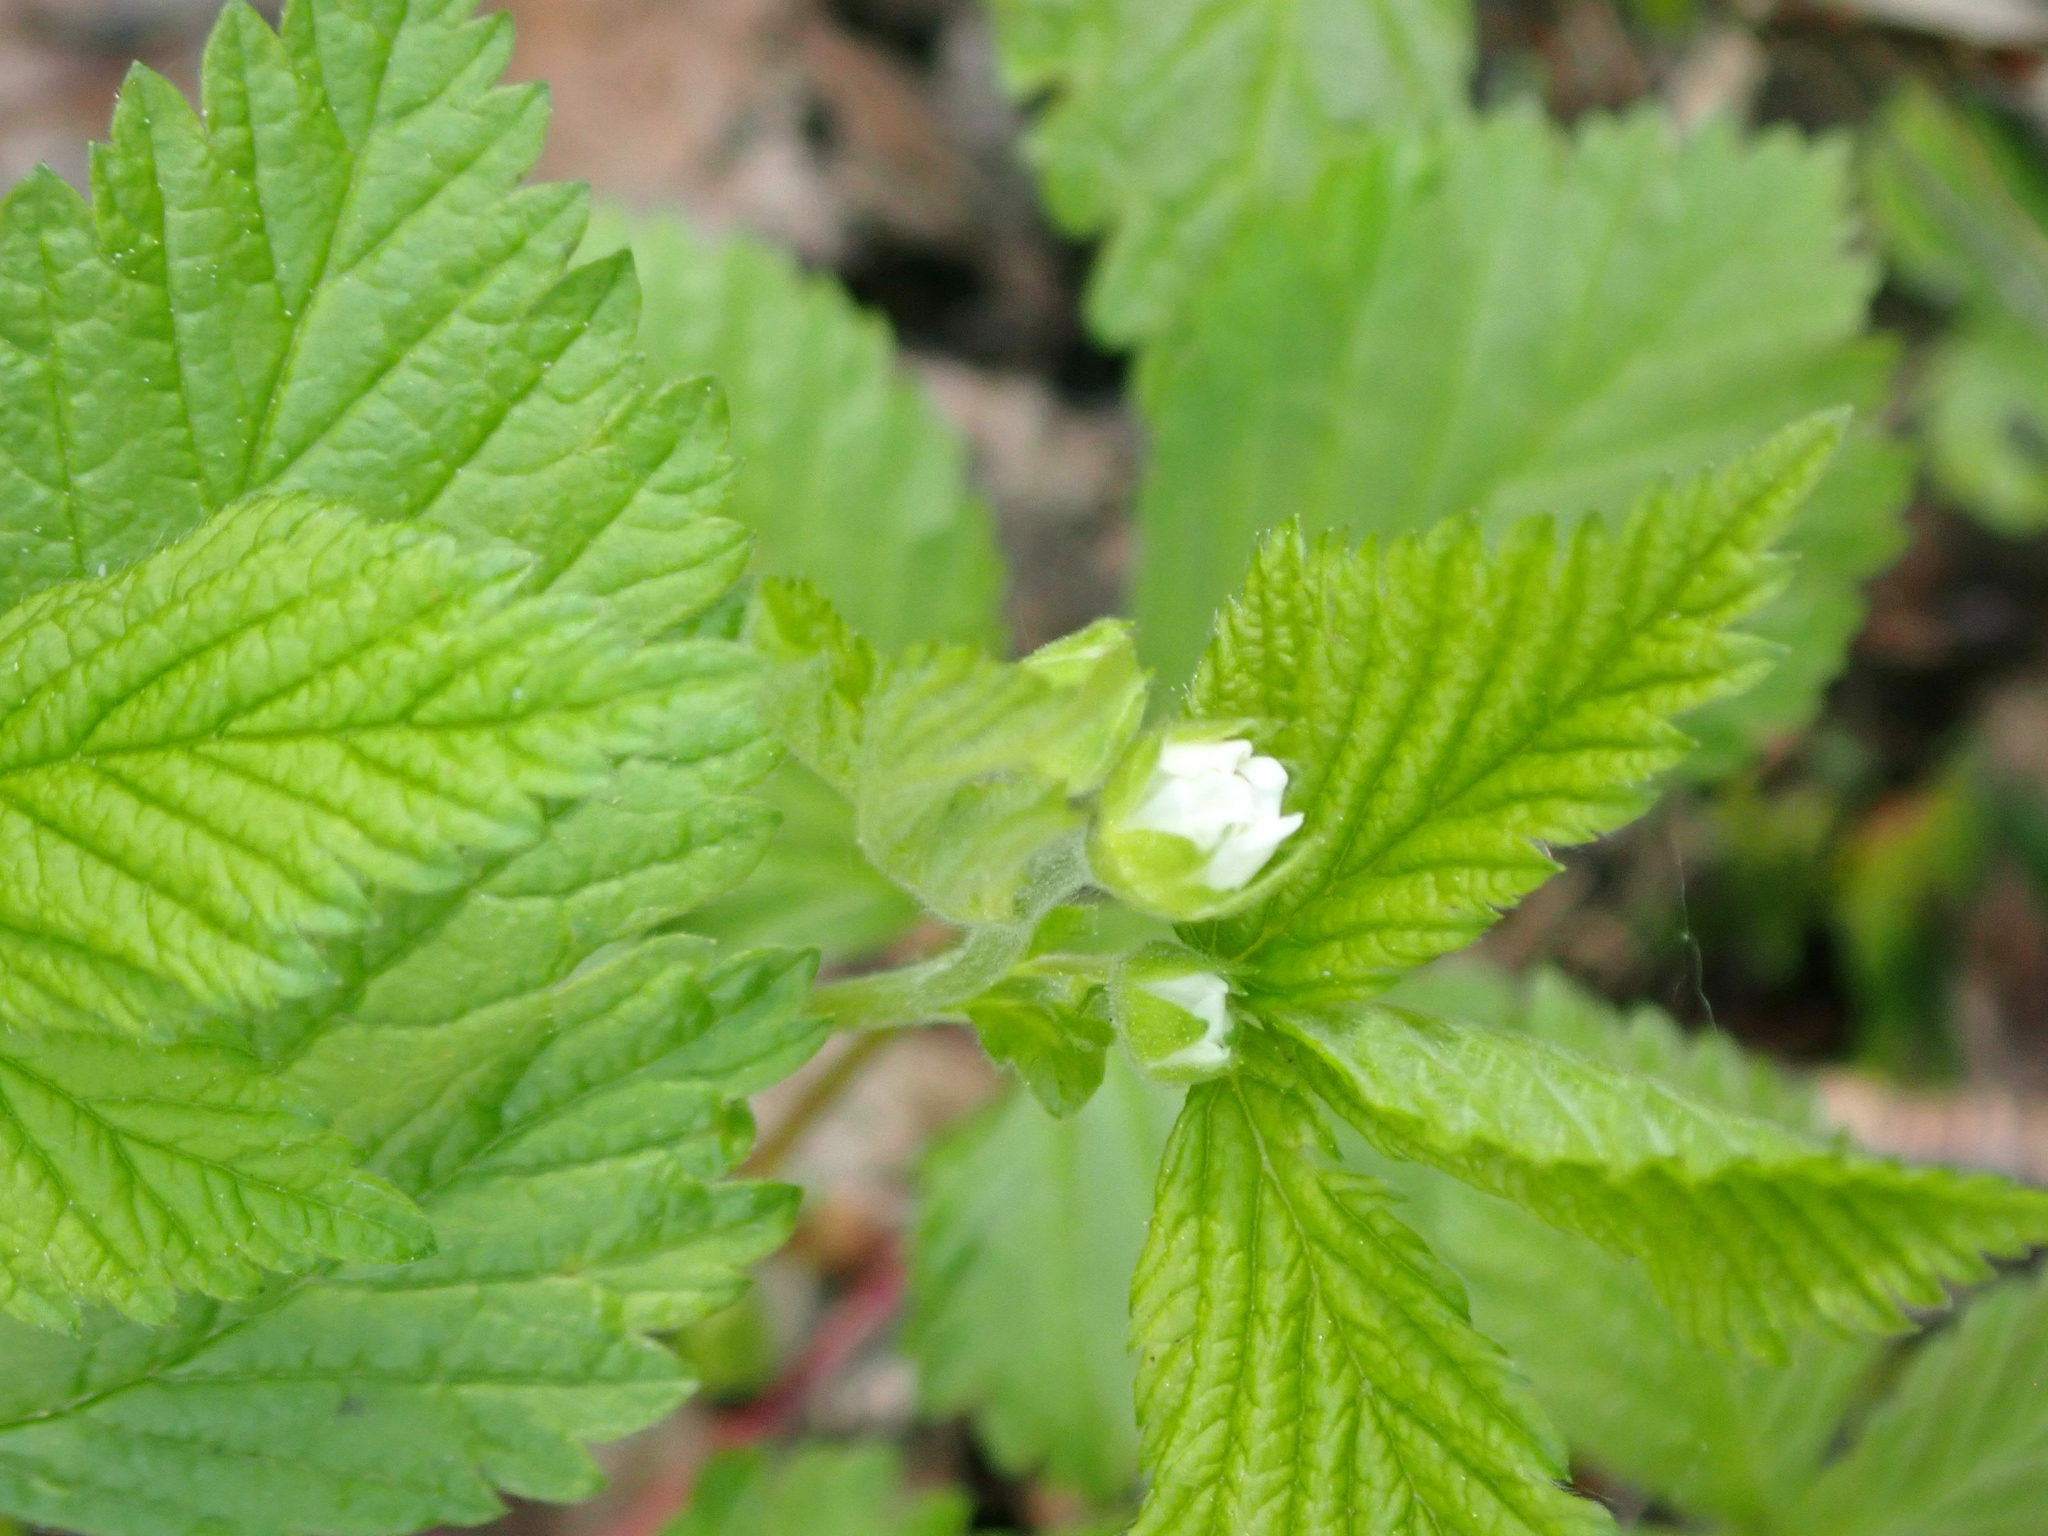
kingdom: Plantae
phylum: Tracheophyta
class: Magnoliopsida
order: Rosales
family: Rosaceae
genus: Rubus
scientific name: Rubus pubescens
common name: Dwarf raspberry
